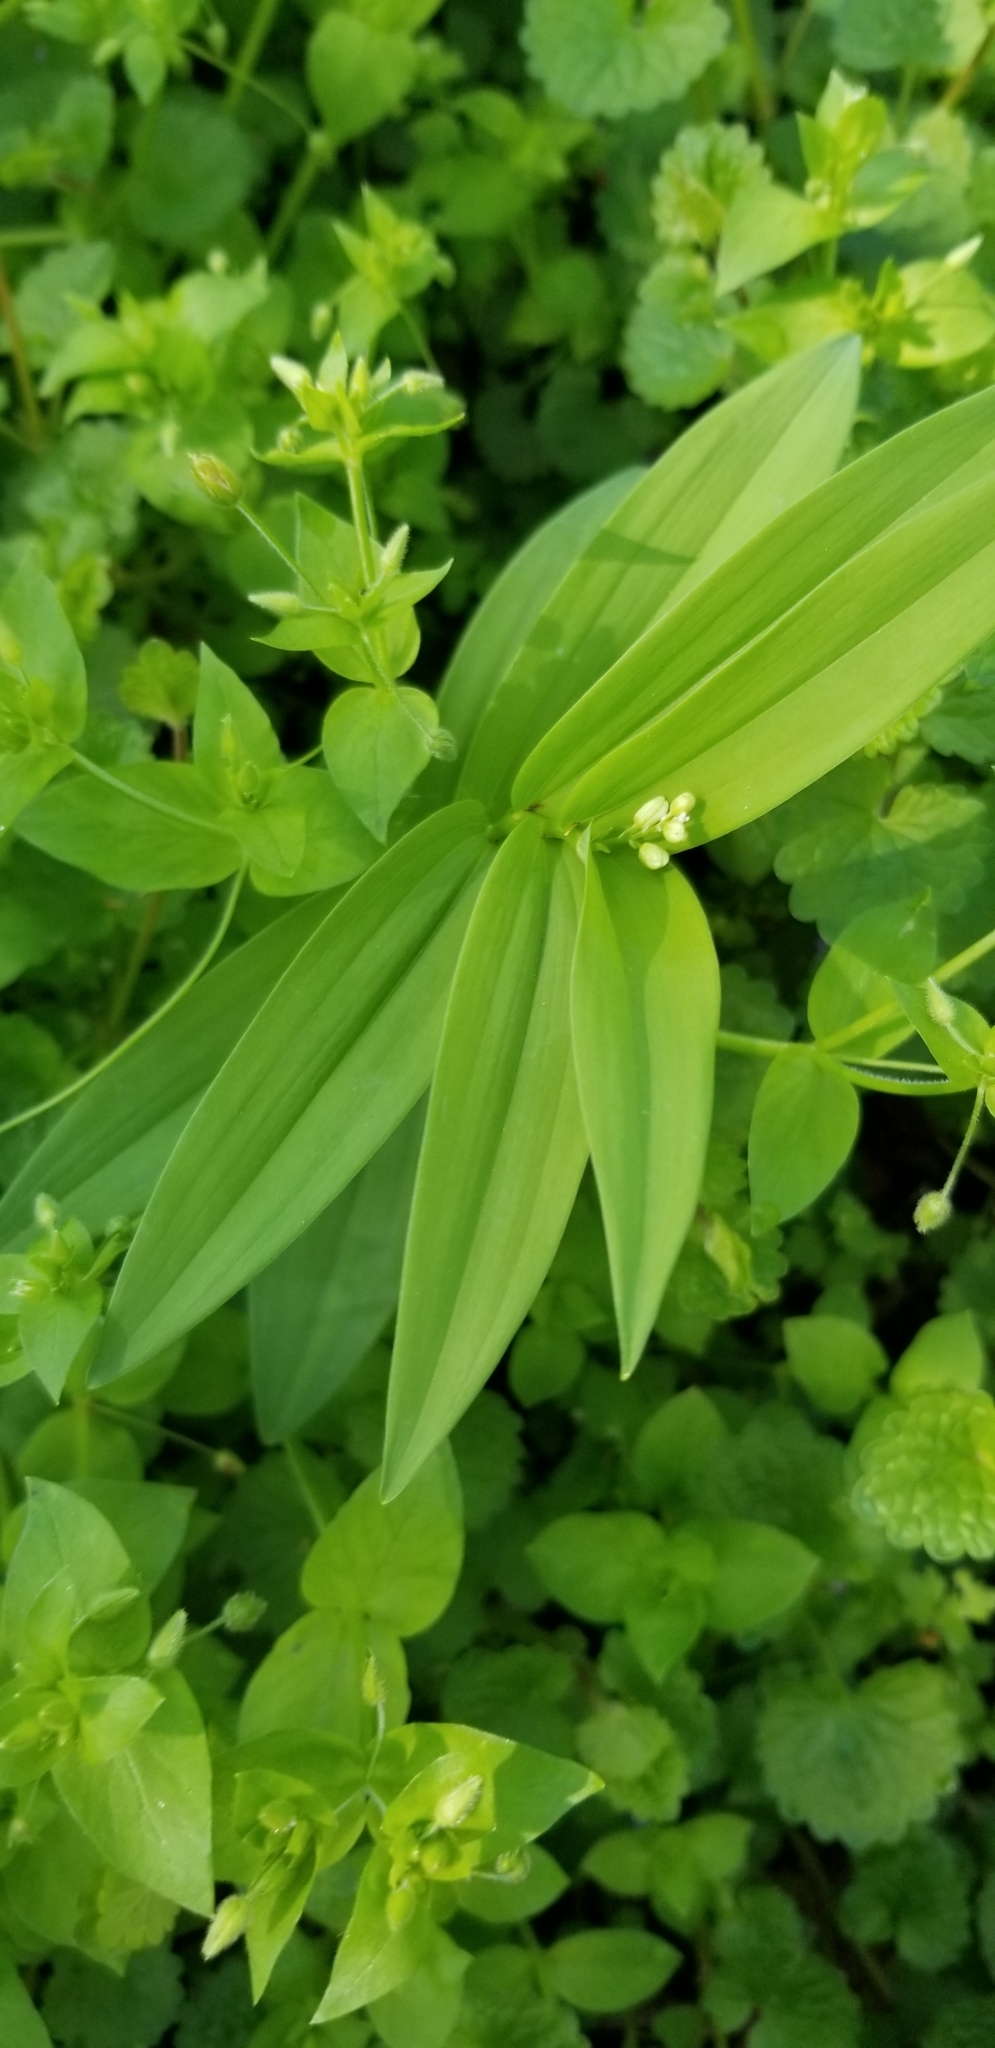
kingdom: Plantae
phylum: Tracheophyta
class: Liliopsida
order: Asparagales
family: Asparagaceae
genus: Maianthemum
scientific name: Maianthemum stellatum
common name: Little false solomon's seal
